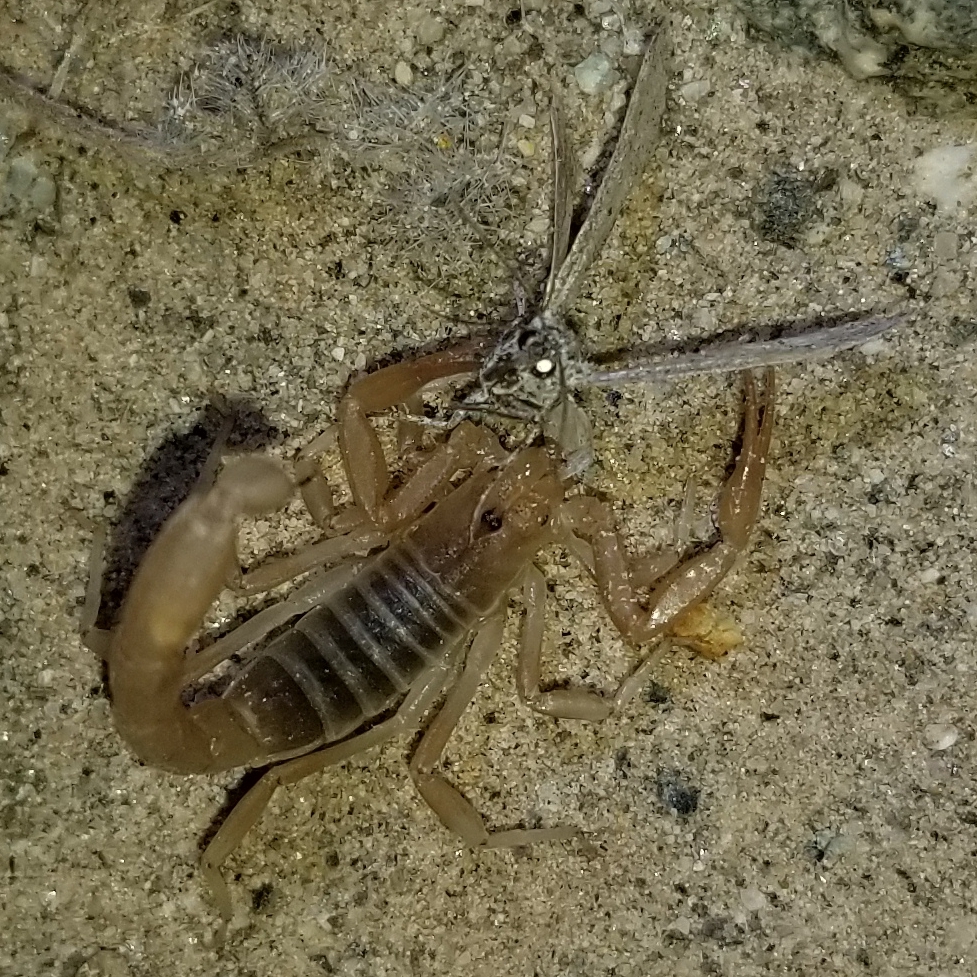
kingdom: Animalia
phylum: Arthropoda
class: Arachnida
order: Scorpiones
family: Vaejovidae
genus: Paravaejovis
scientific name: Paravaejovis waeringi
